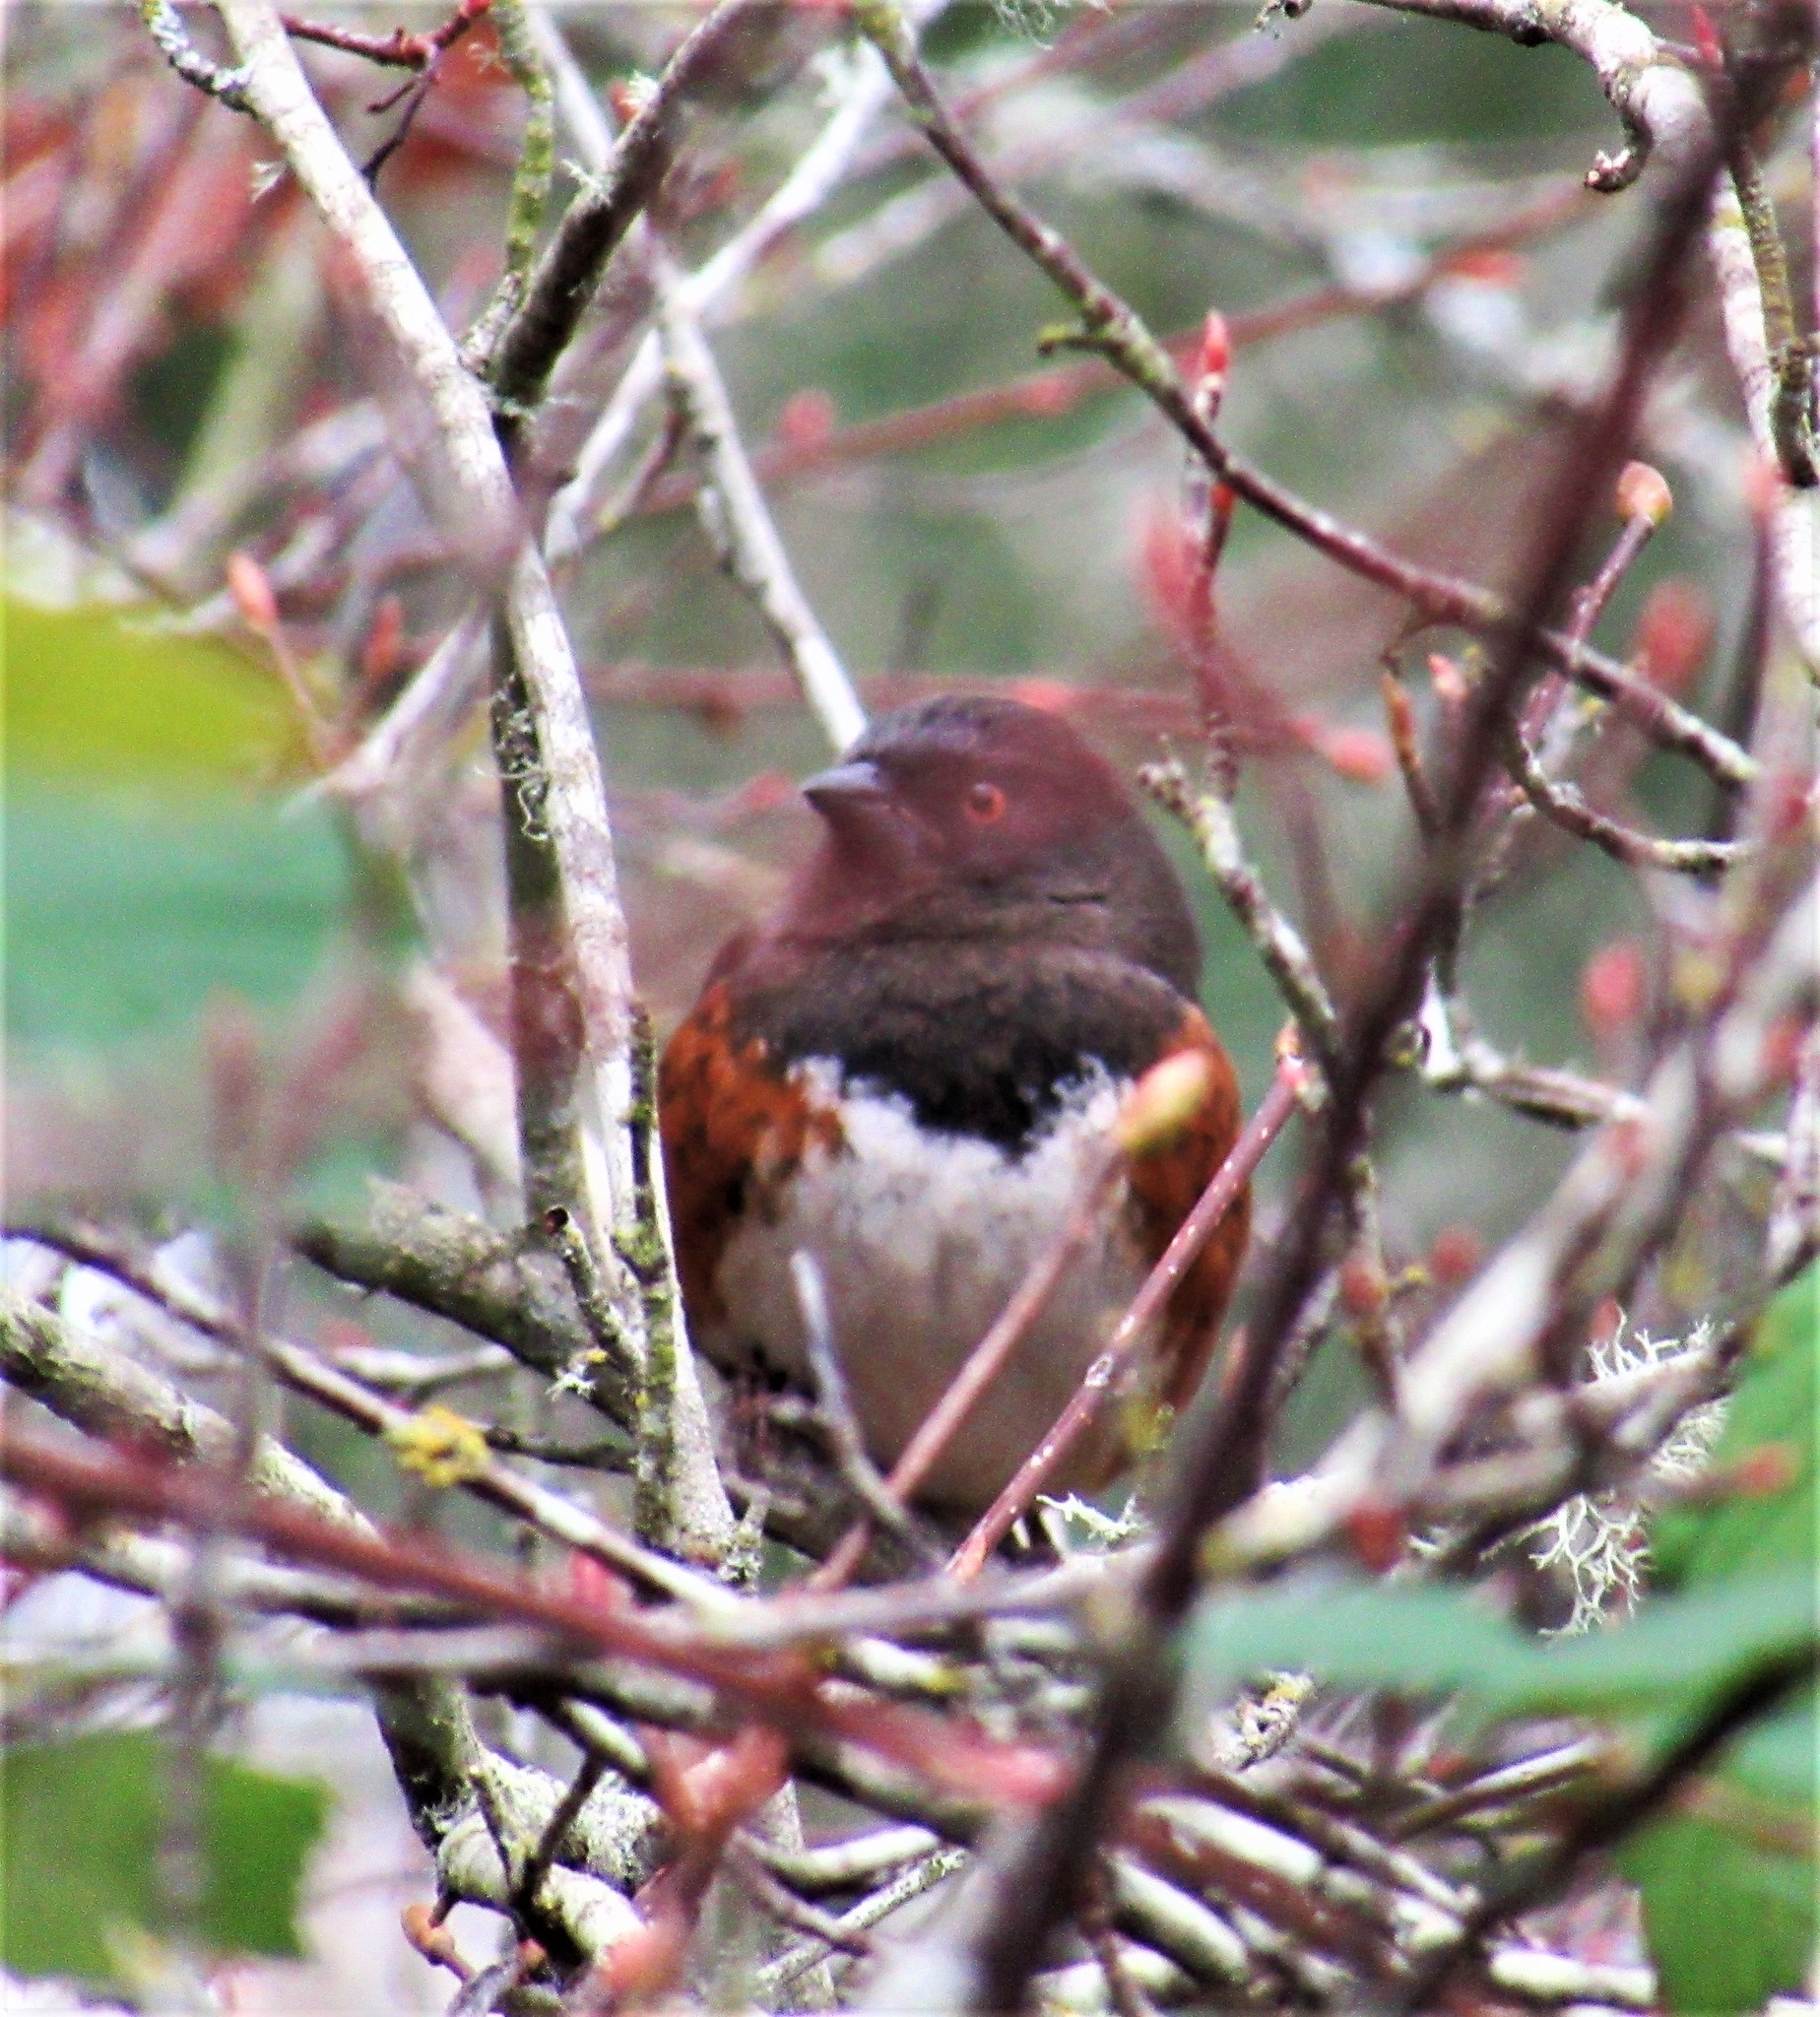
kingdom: Animalia
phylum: Chordata
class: Aves
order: Passeriformes
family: Passerellidae
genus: Pipilo
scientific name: Pipilo maculatus
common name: Spotted towhee
